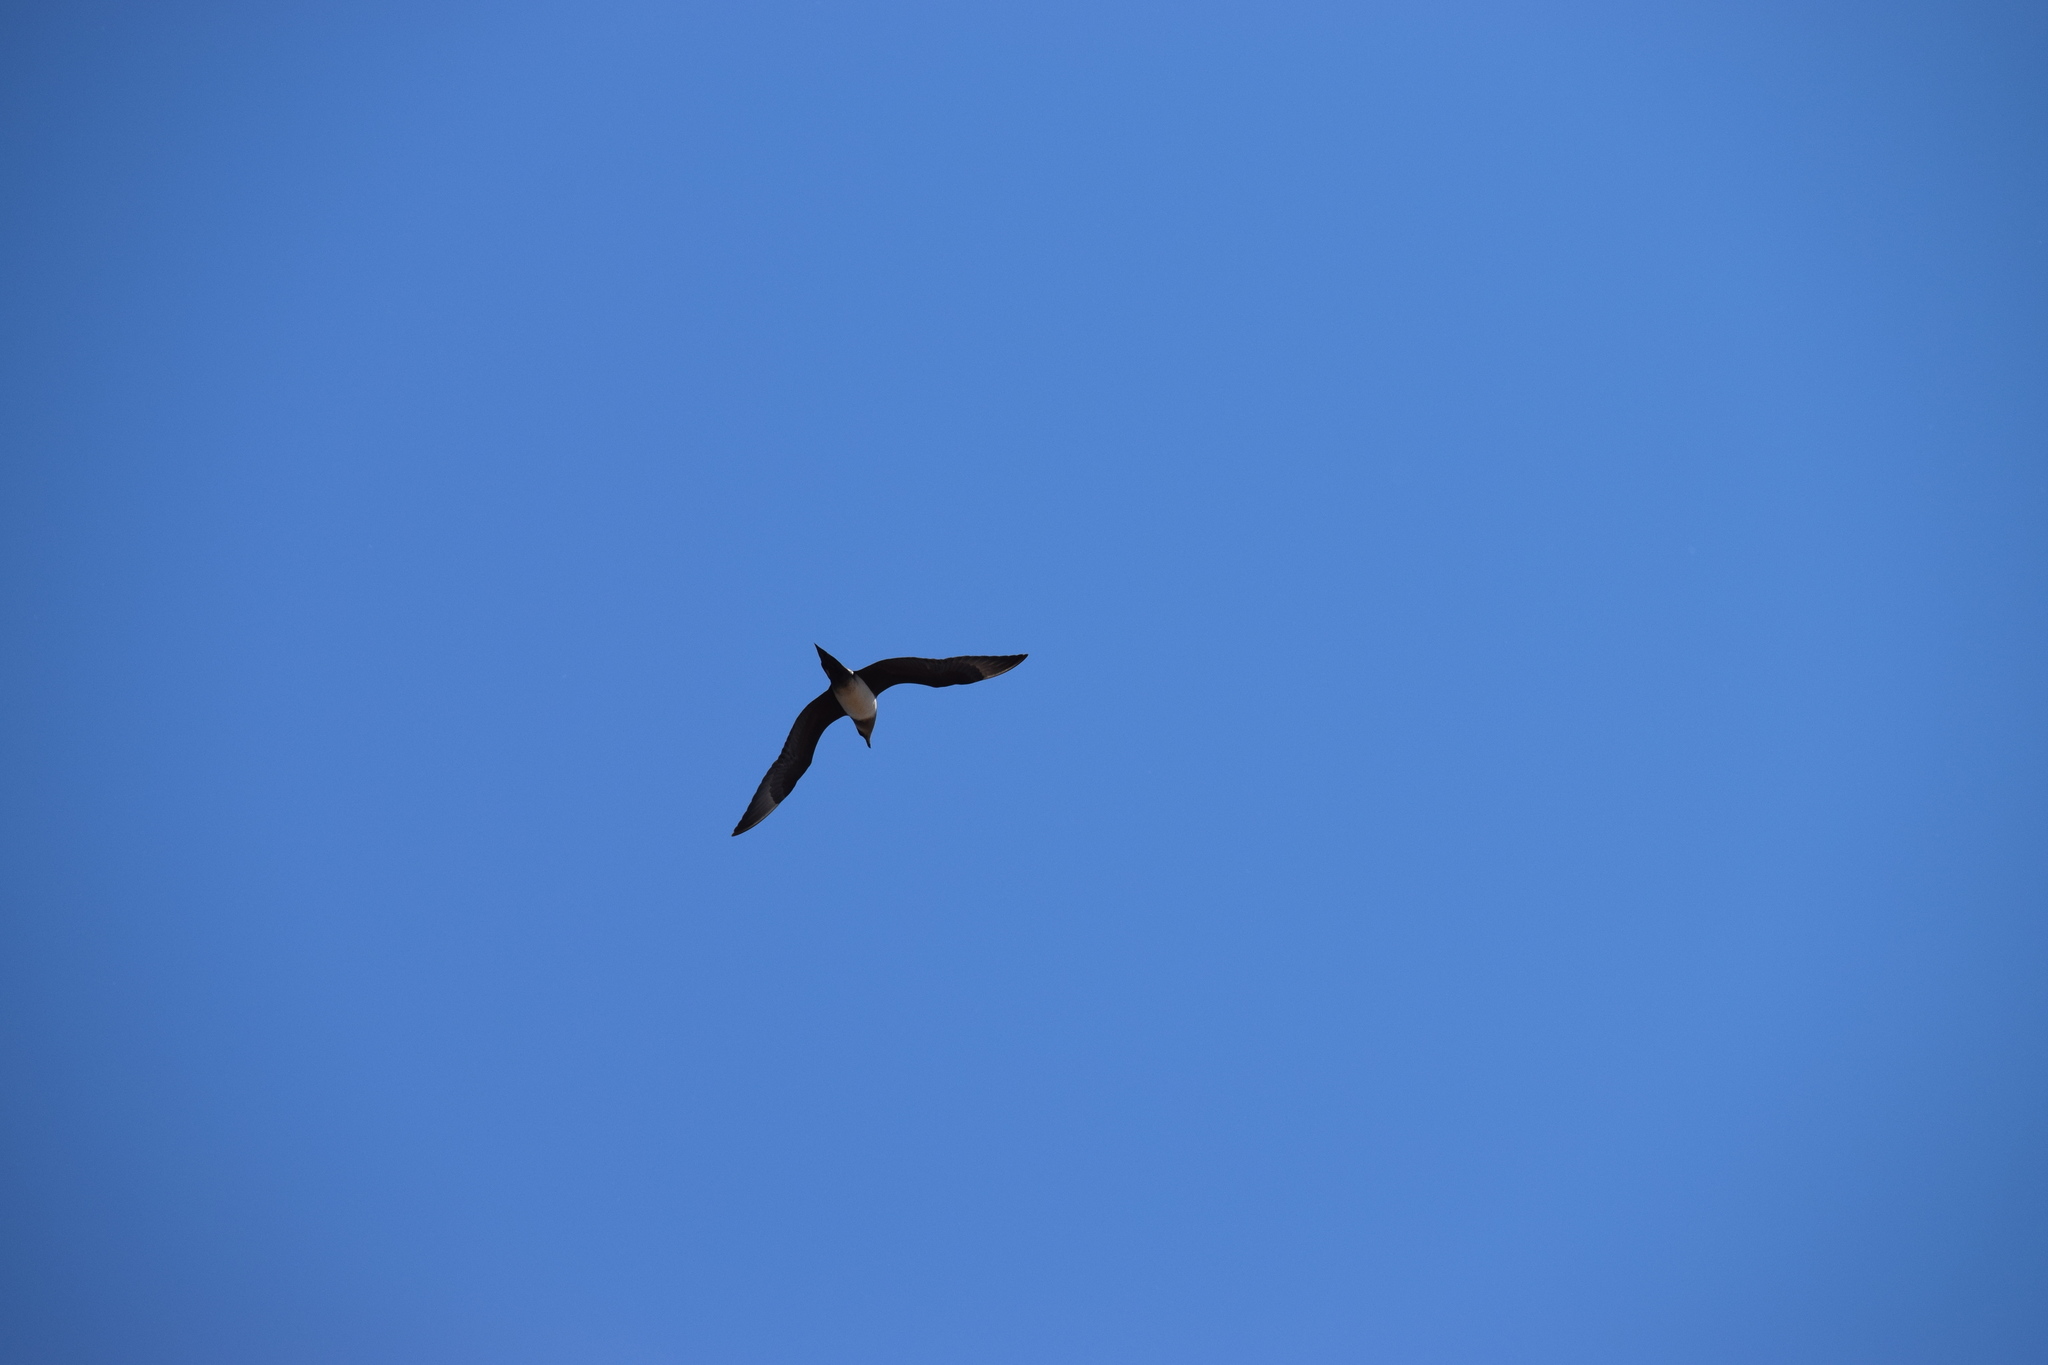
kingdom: Animalia
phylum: Chordata
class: Aves
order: Charadriiformes
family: Stercorariidae
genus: Stercorarius
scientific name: Stercorarius parasiticus
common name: Parasitic jaeger
